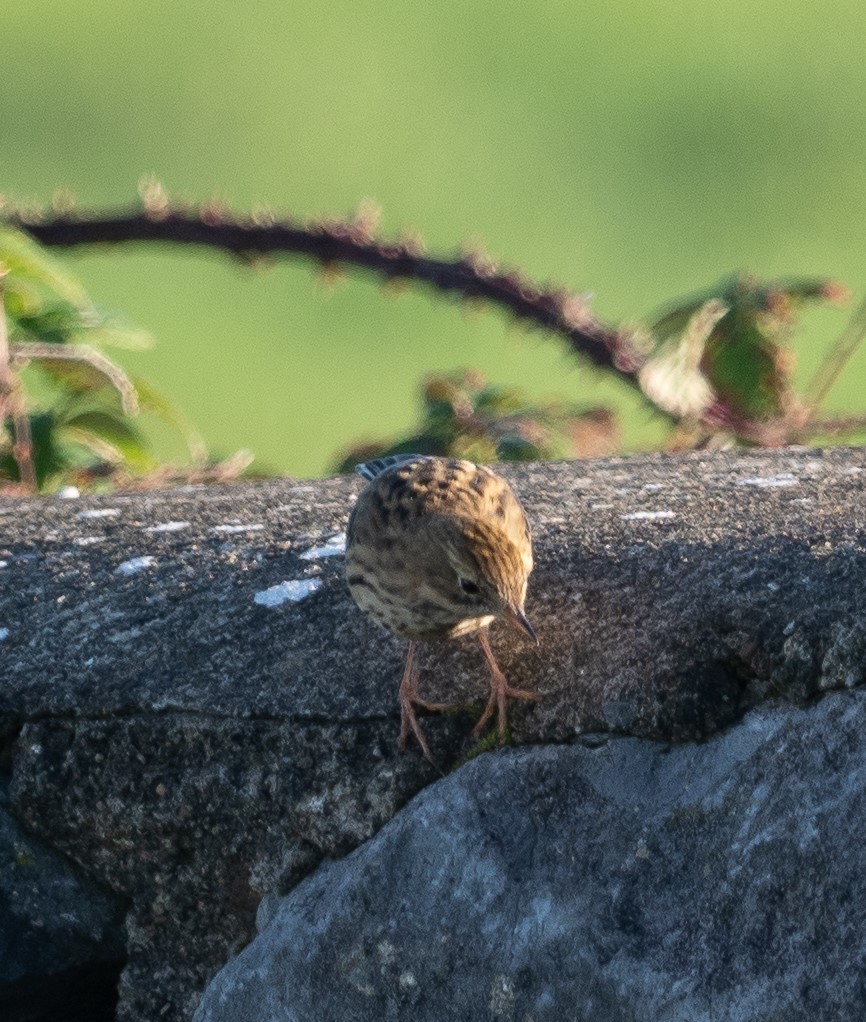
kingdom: Animalia
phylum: Chordata
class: Aves
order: Passeriformes
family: Motacillidae
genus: Anthus
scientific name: Anthus pratensis
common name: Meadow pipit
